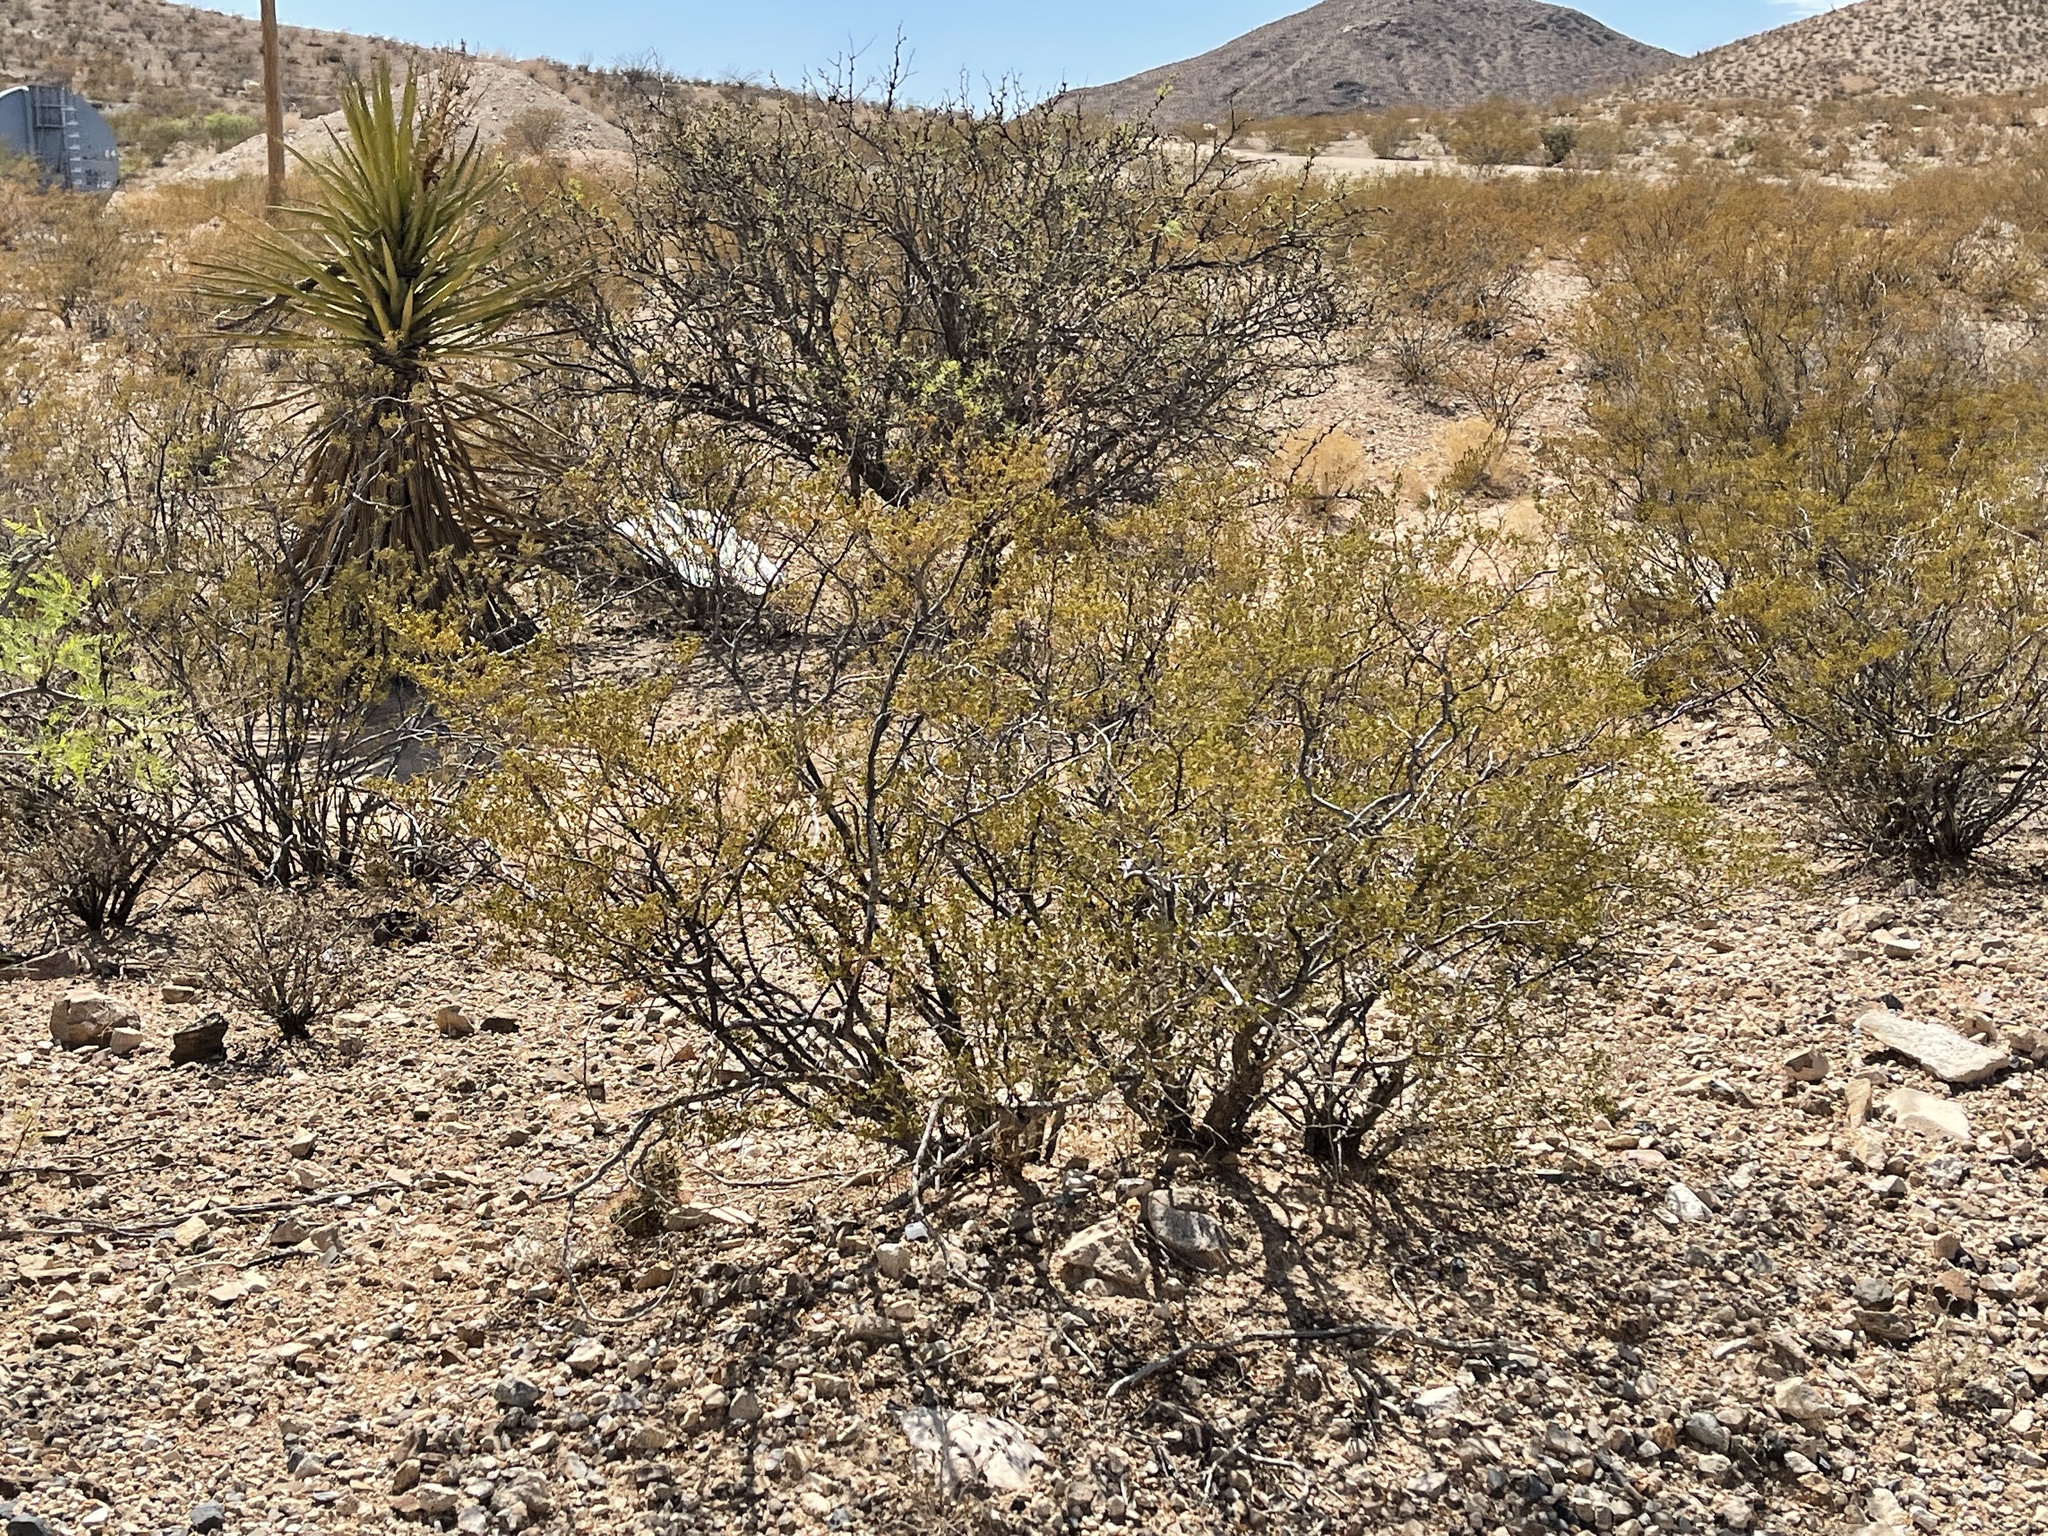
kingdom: Plantae
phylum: Tracheophyta
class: Magnoliopsida
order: Zygophyllales
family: Zygophyllaceae
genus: Larrea
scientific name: Larrea tridentata
